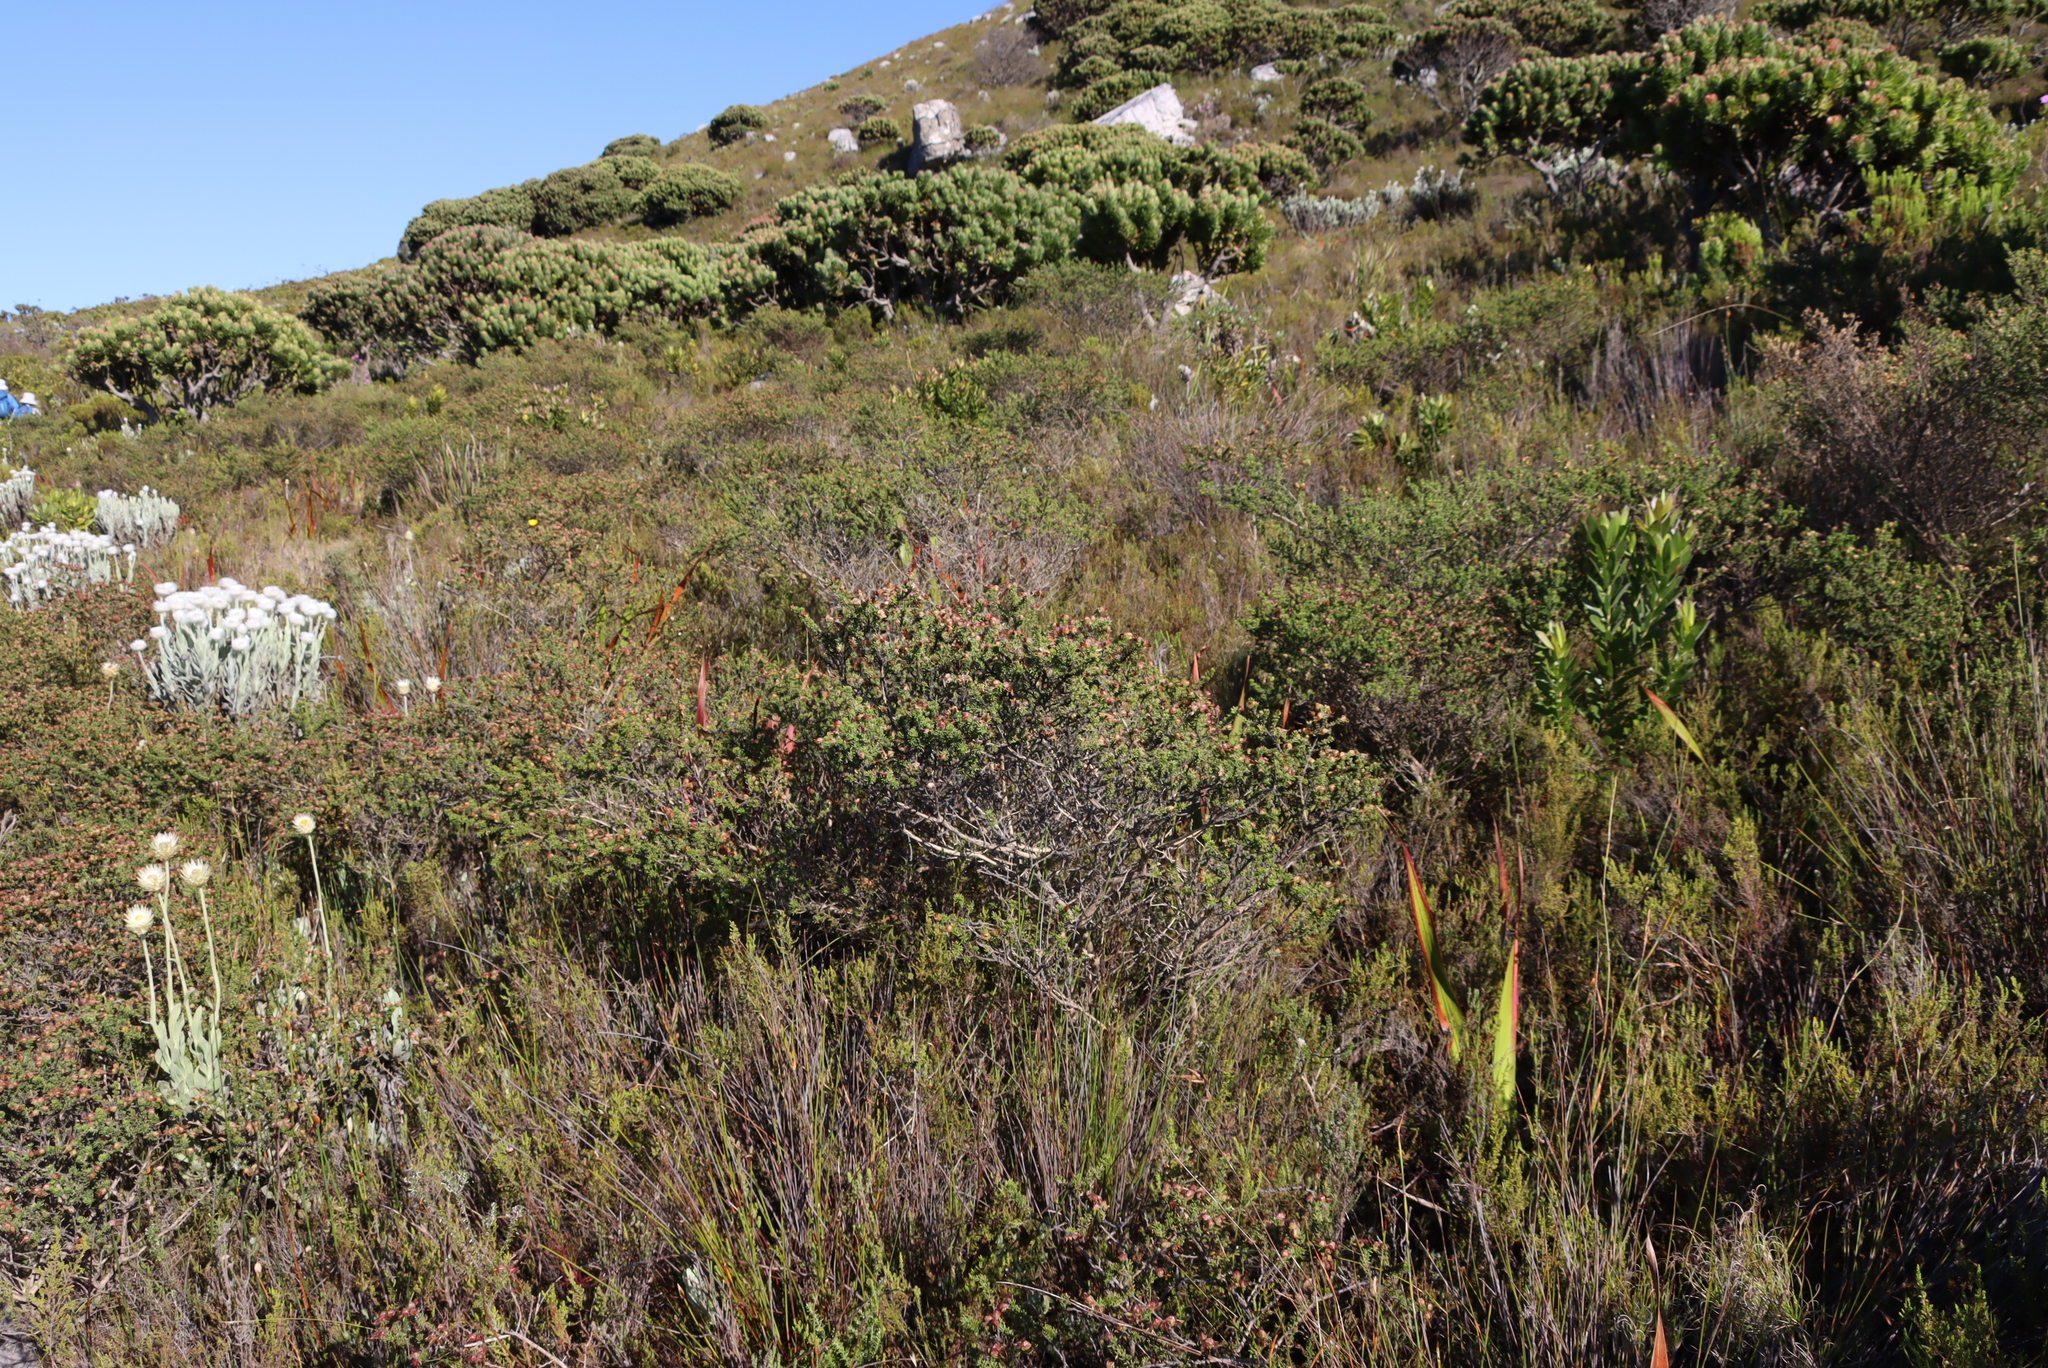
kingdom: Plantae
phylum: Tracheophyta
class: Magnoliopsida
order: Fabales
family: Fabaceae
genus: Aspalathus
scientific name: Aspalathus carnosa
